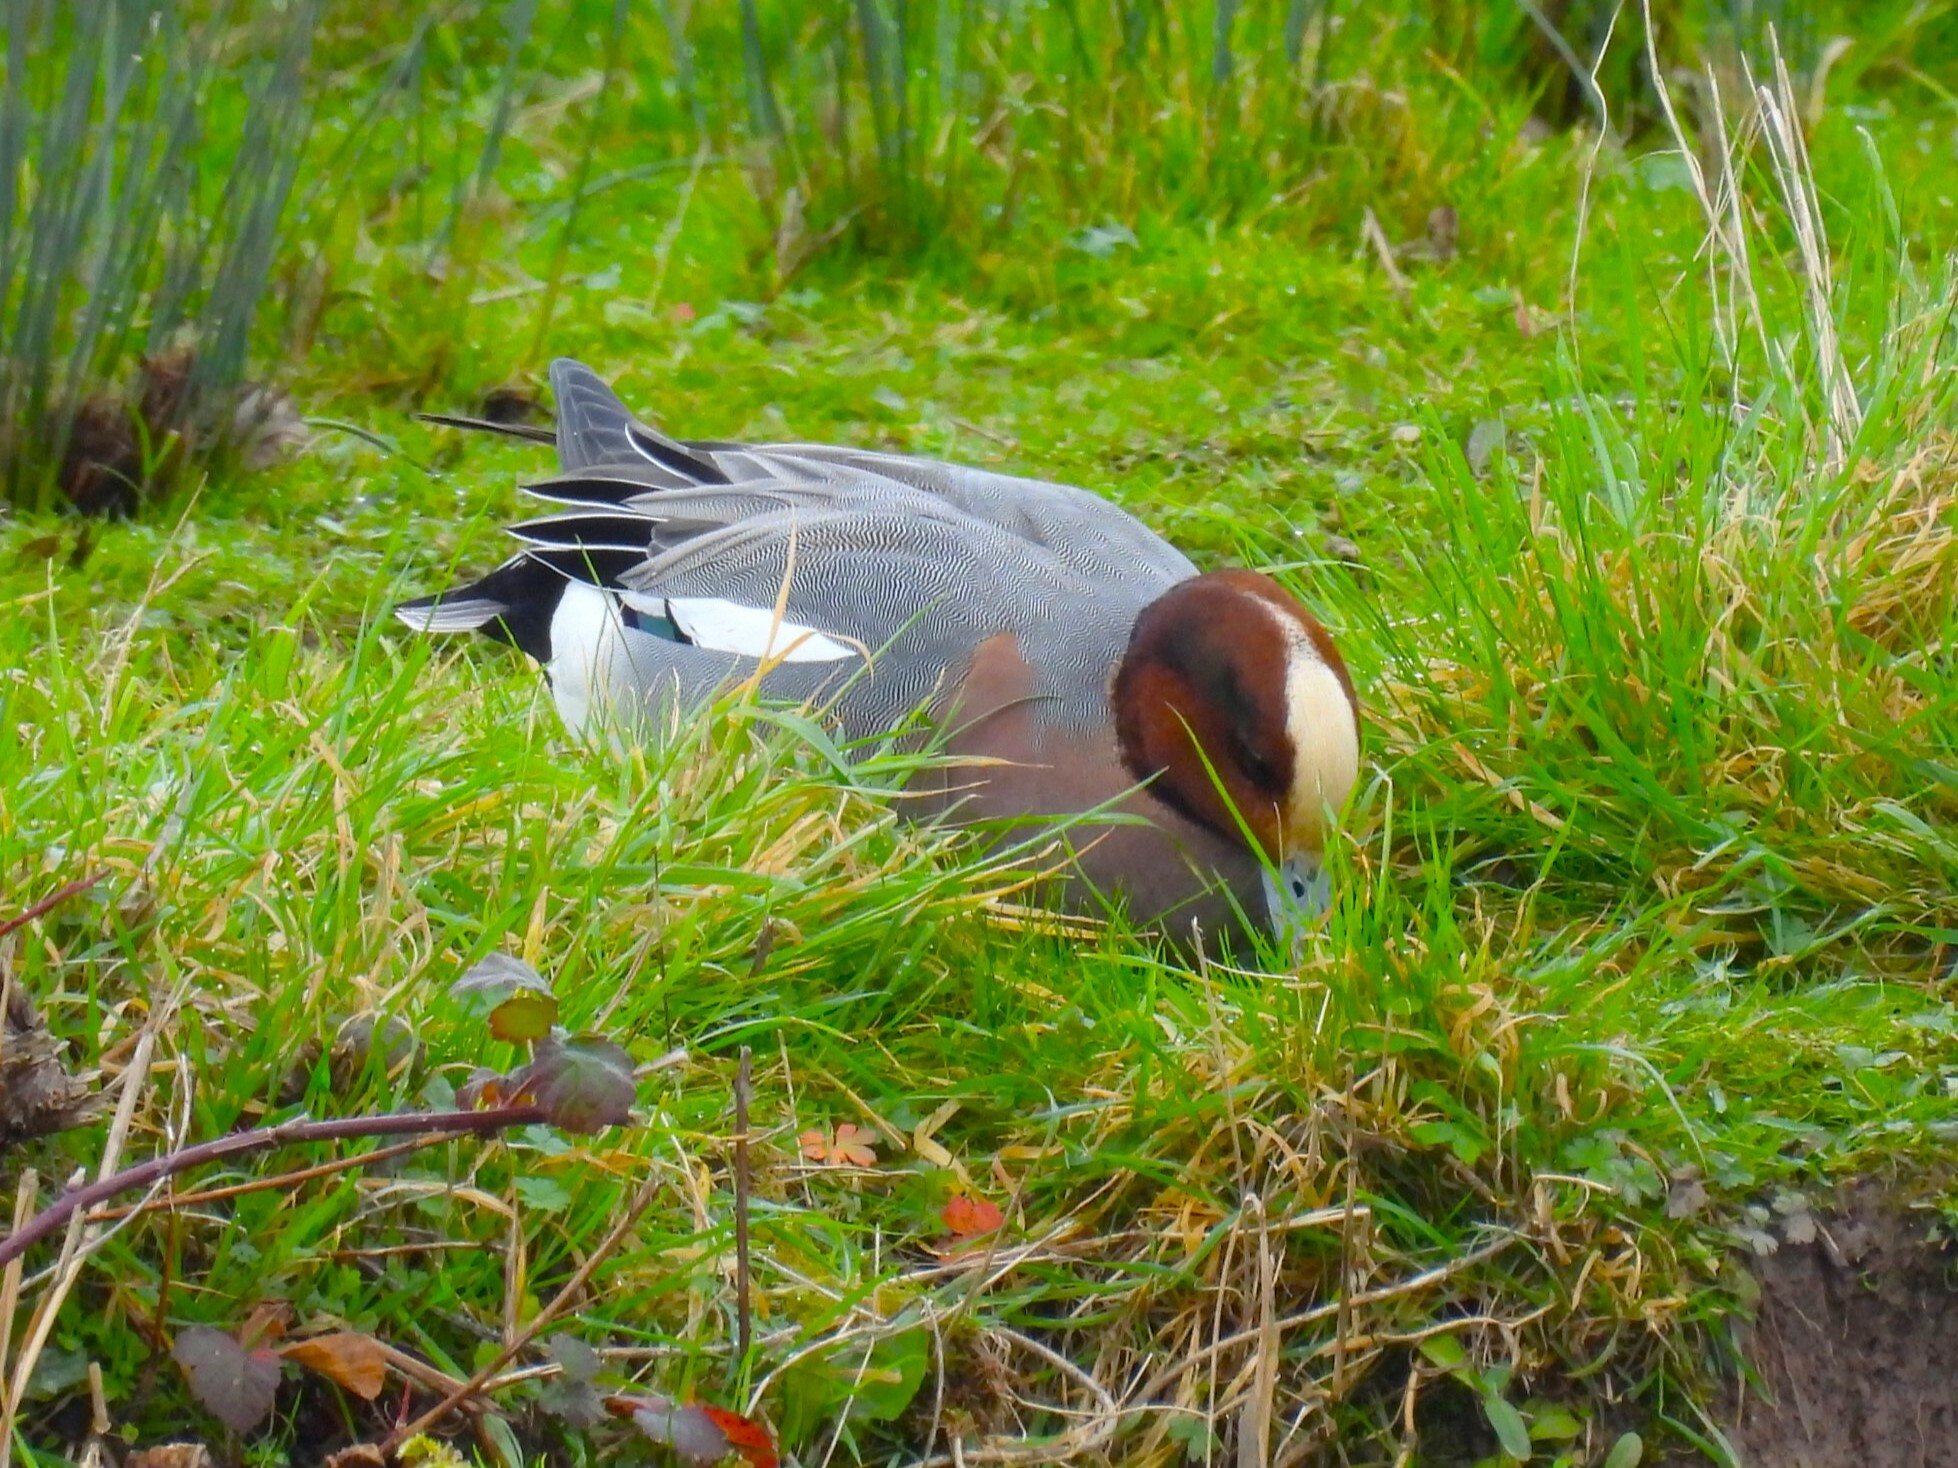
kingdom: Animalia
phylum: Chordata
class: Aves
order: Anseriformes
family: Anatidae
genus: Mareca
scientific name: Mareca penelope
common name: Eurasian wigeon
